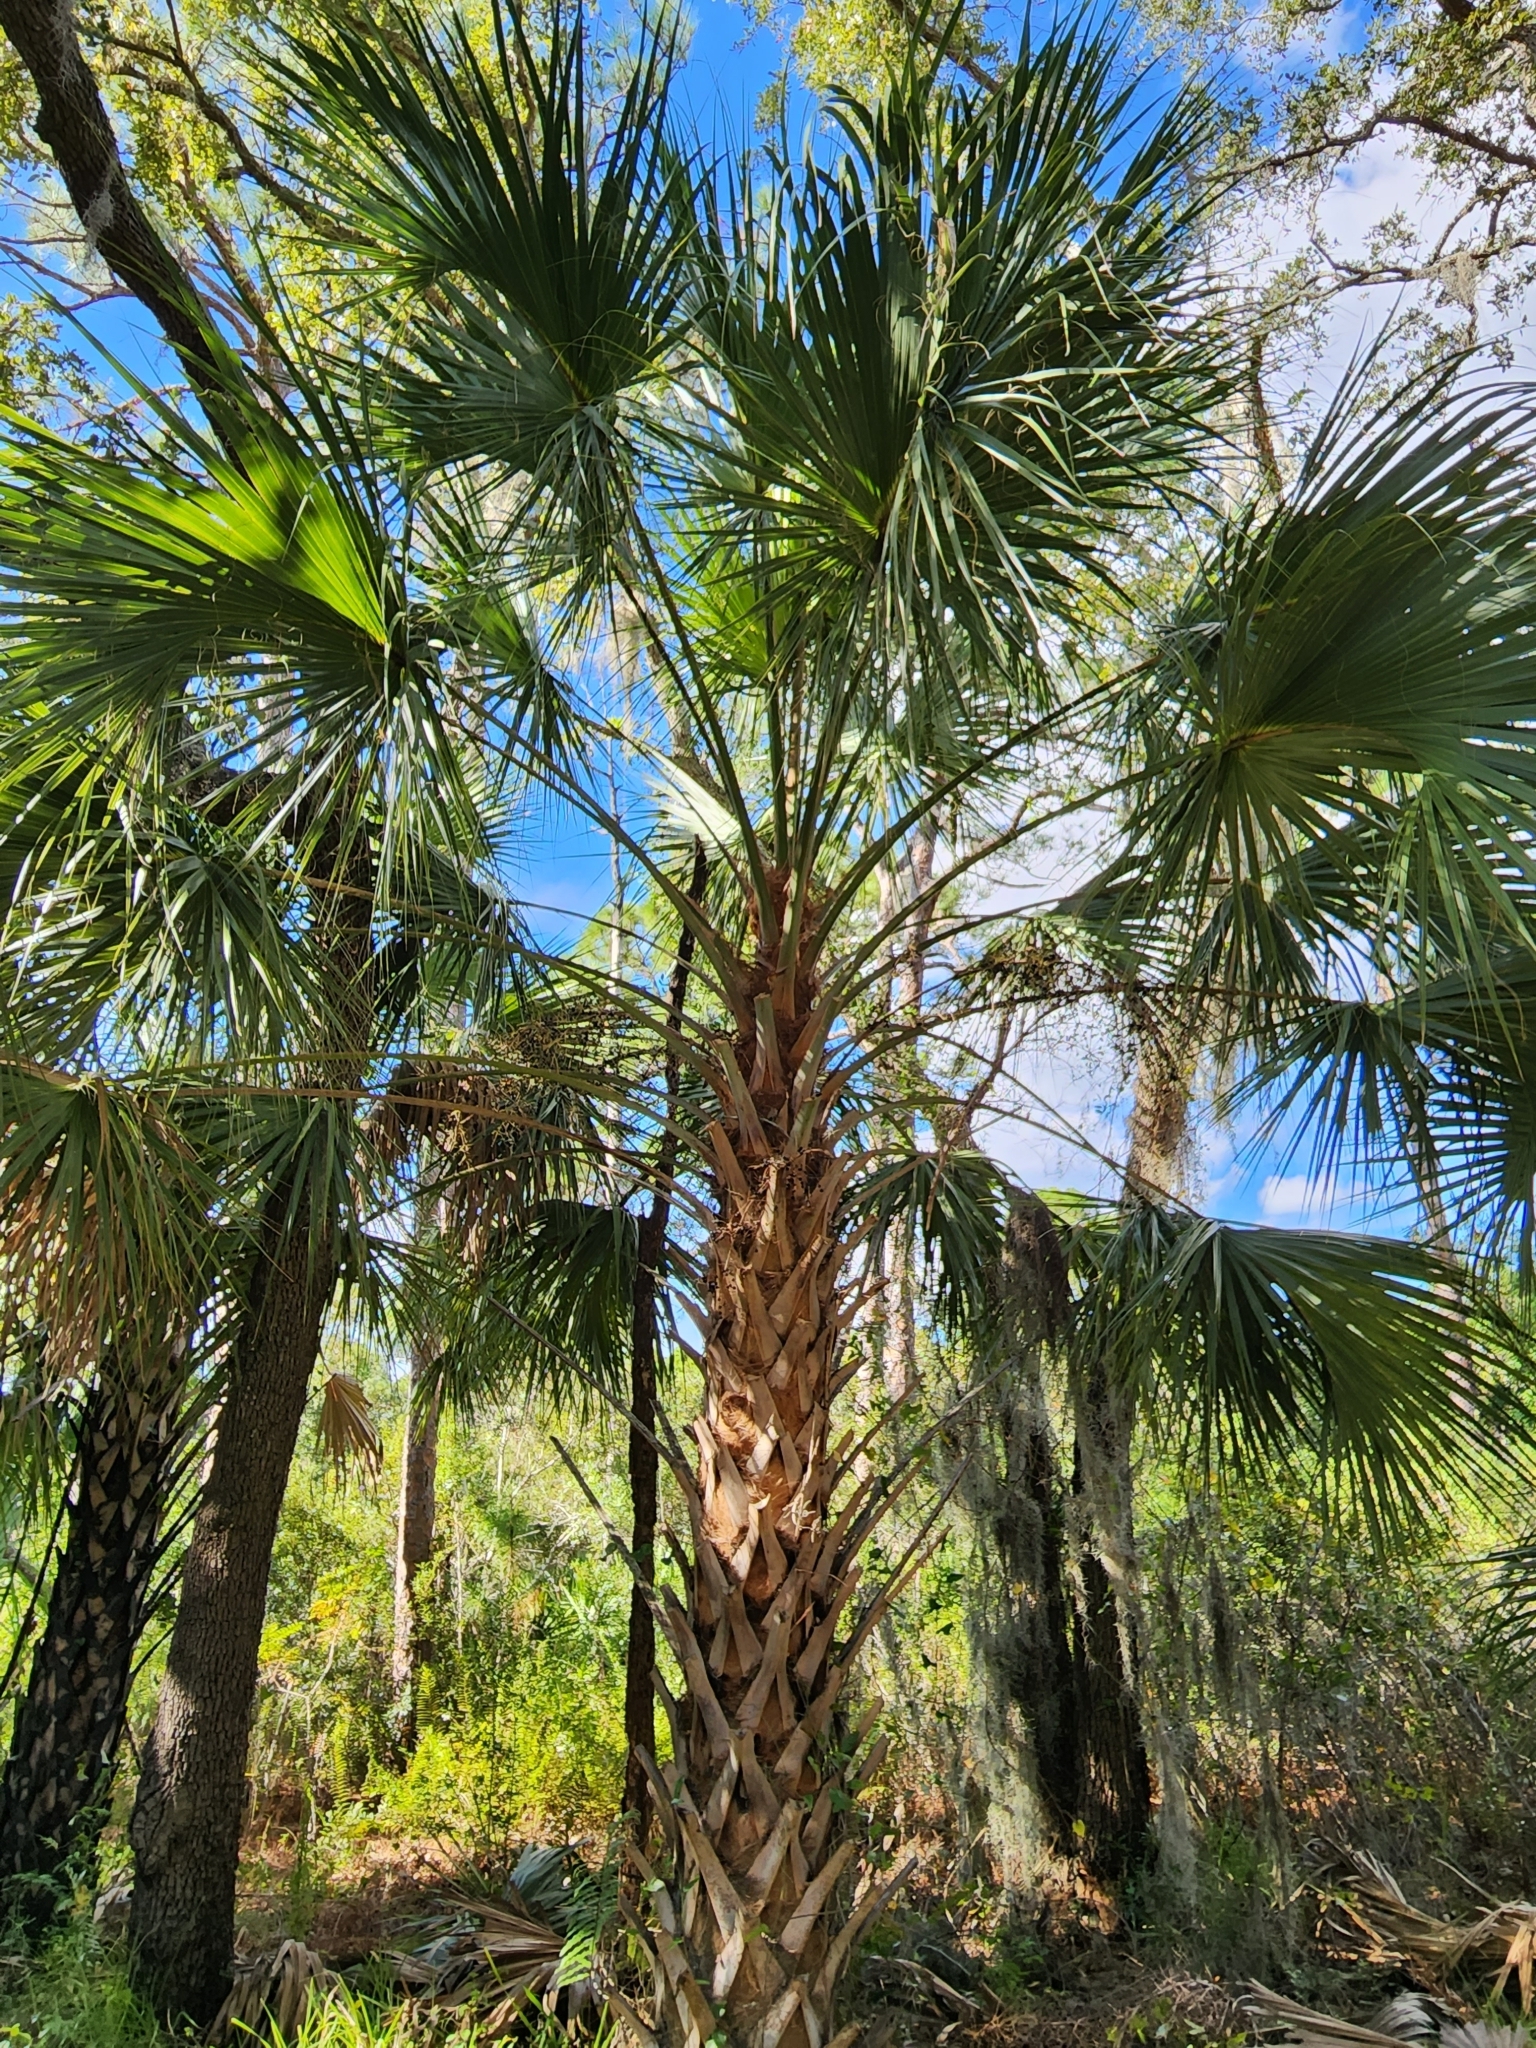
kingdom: Plantae
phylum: Tracheophyta
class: Liliopsida
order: Arecales
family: Arecaceae
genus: Sabal
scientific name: Sabal palmetto
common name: Blue palmetto
